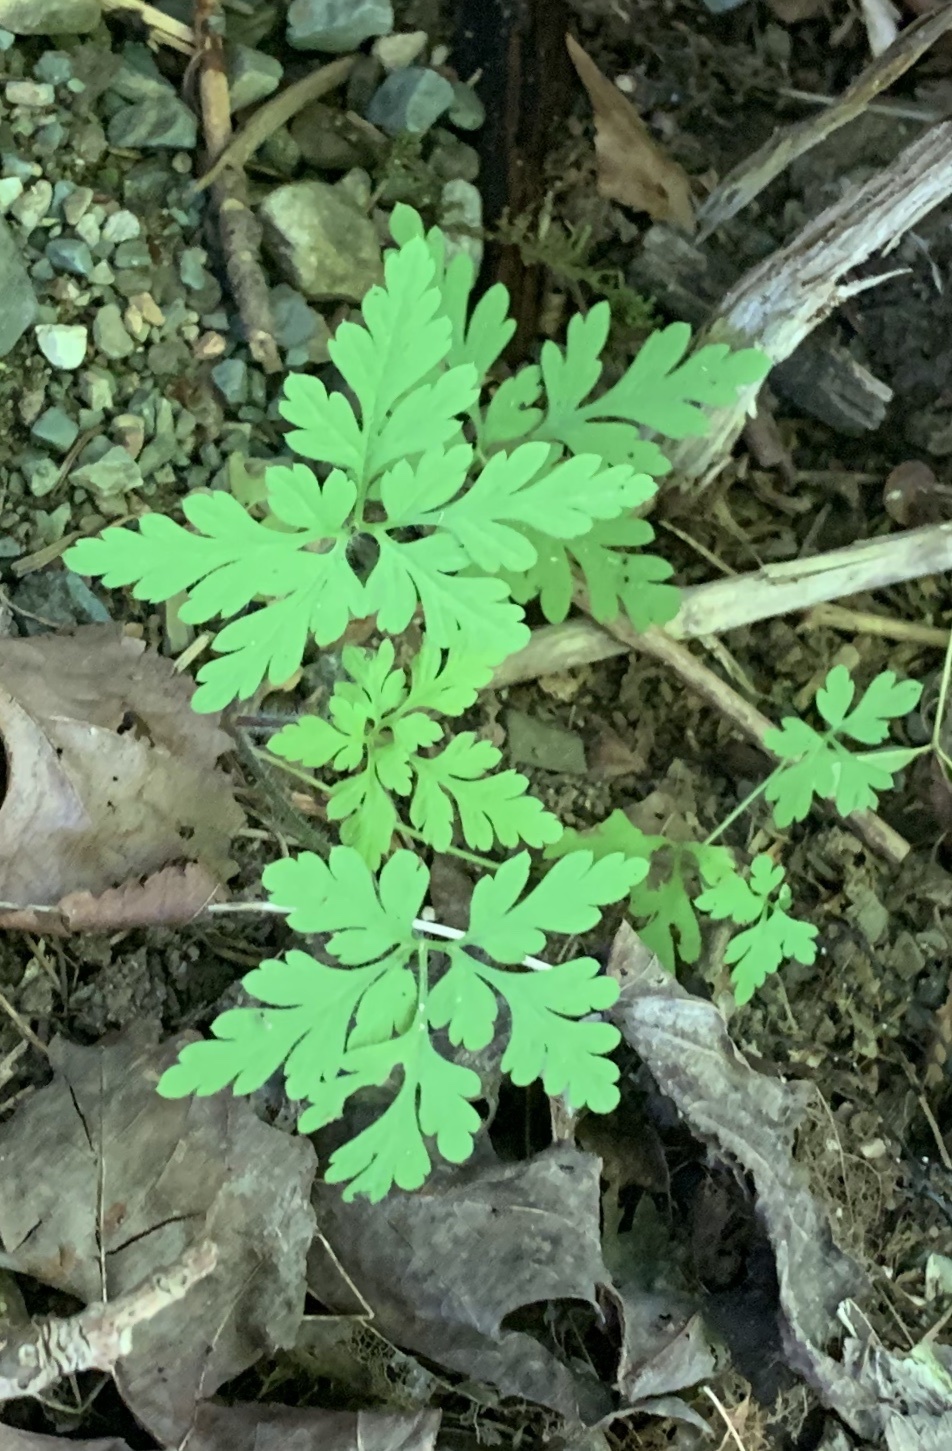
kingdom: Plantae
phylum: Tracheophyta
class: Magnoliopsida
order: Geraniales
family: Geraniaceae
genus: Geranium
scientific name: Geranium robertianum
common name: Herb-robert
